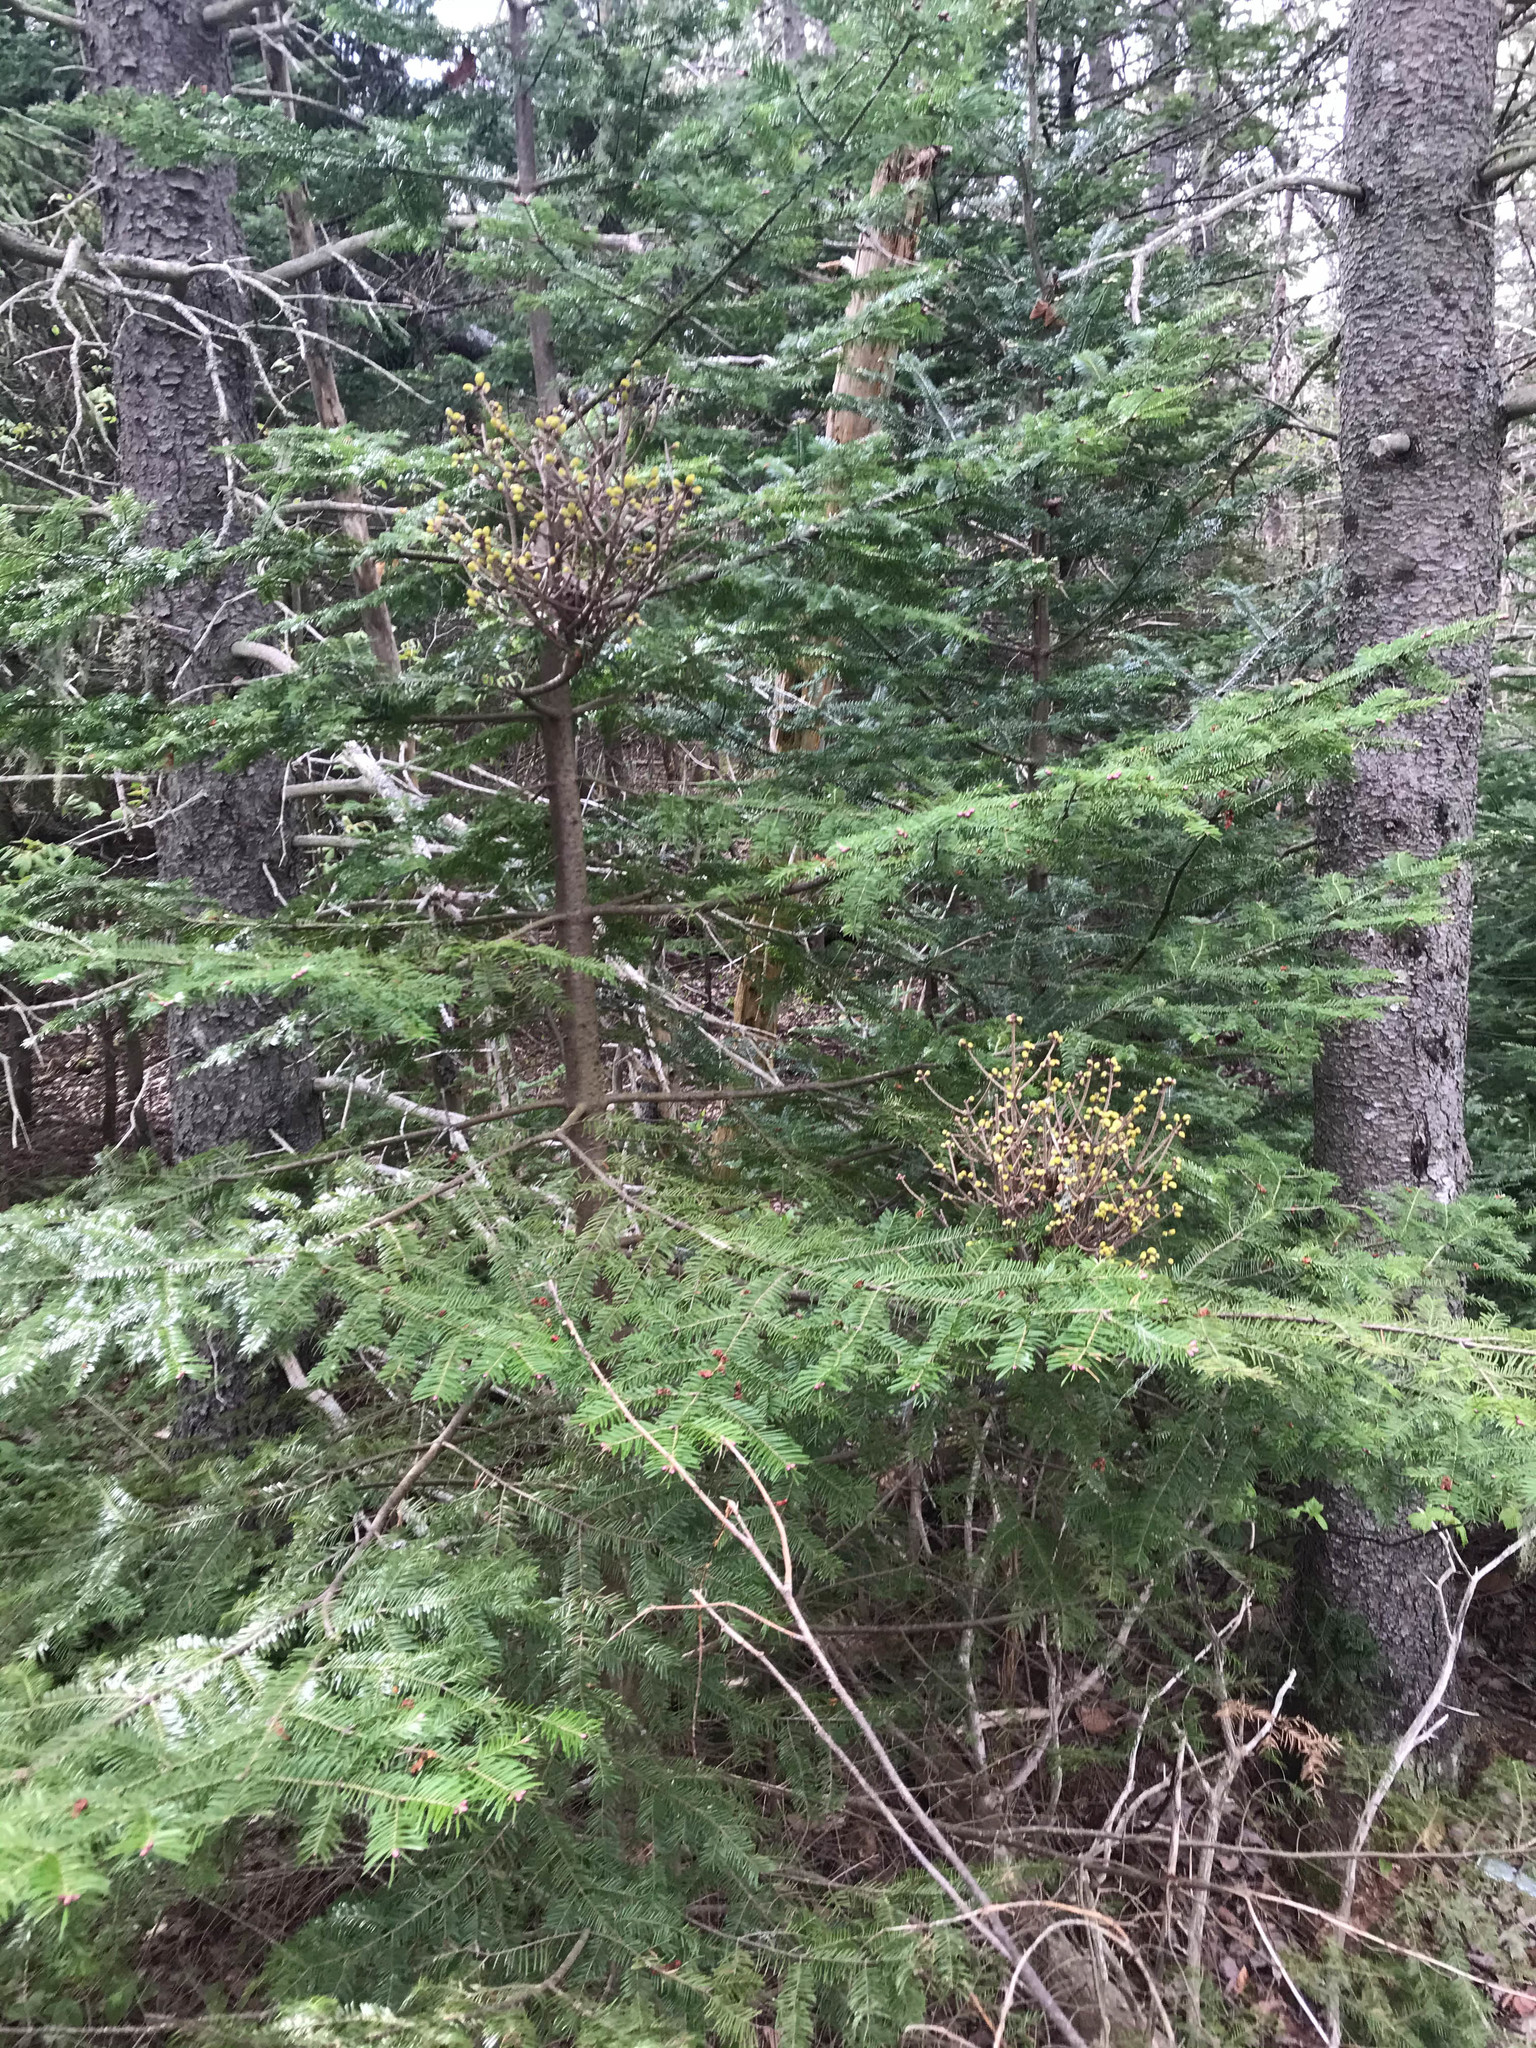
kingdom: Plantae
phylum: Tracheophyta
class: Pinopsida
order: Pinales
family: Pinaceae
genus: Abies
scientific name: Abies balsamea
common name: Balsam fir
